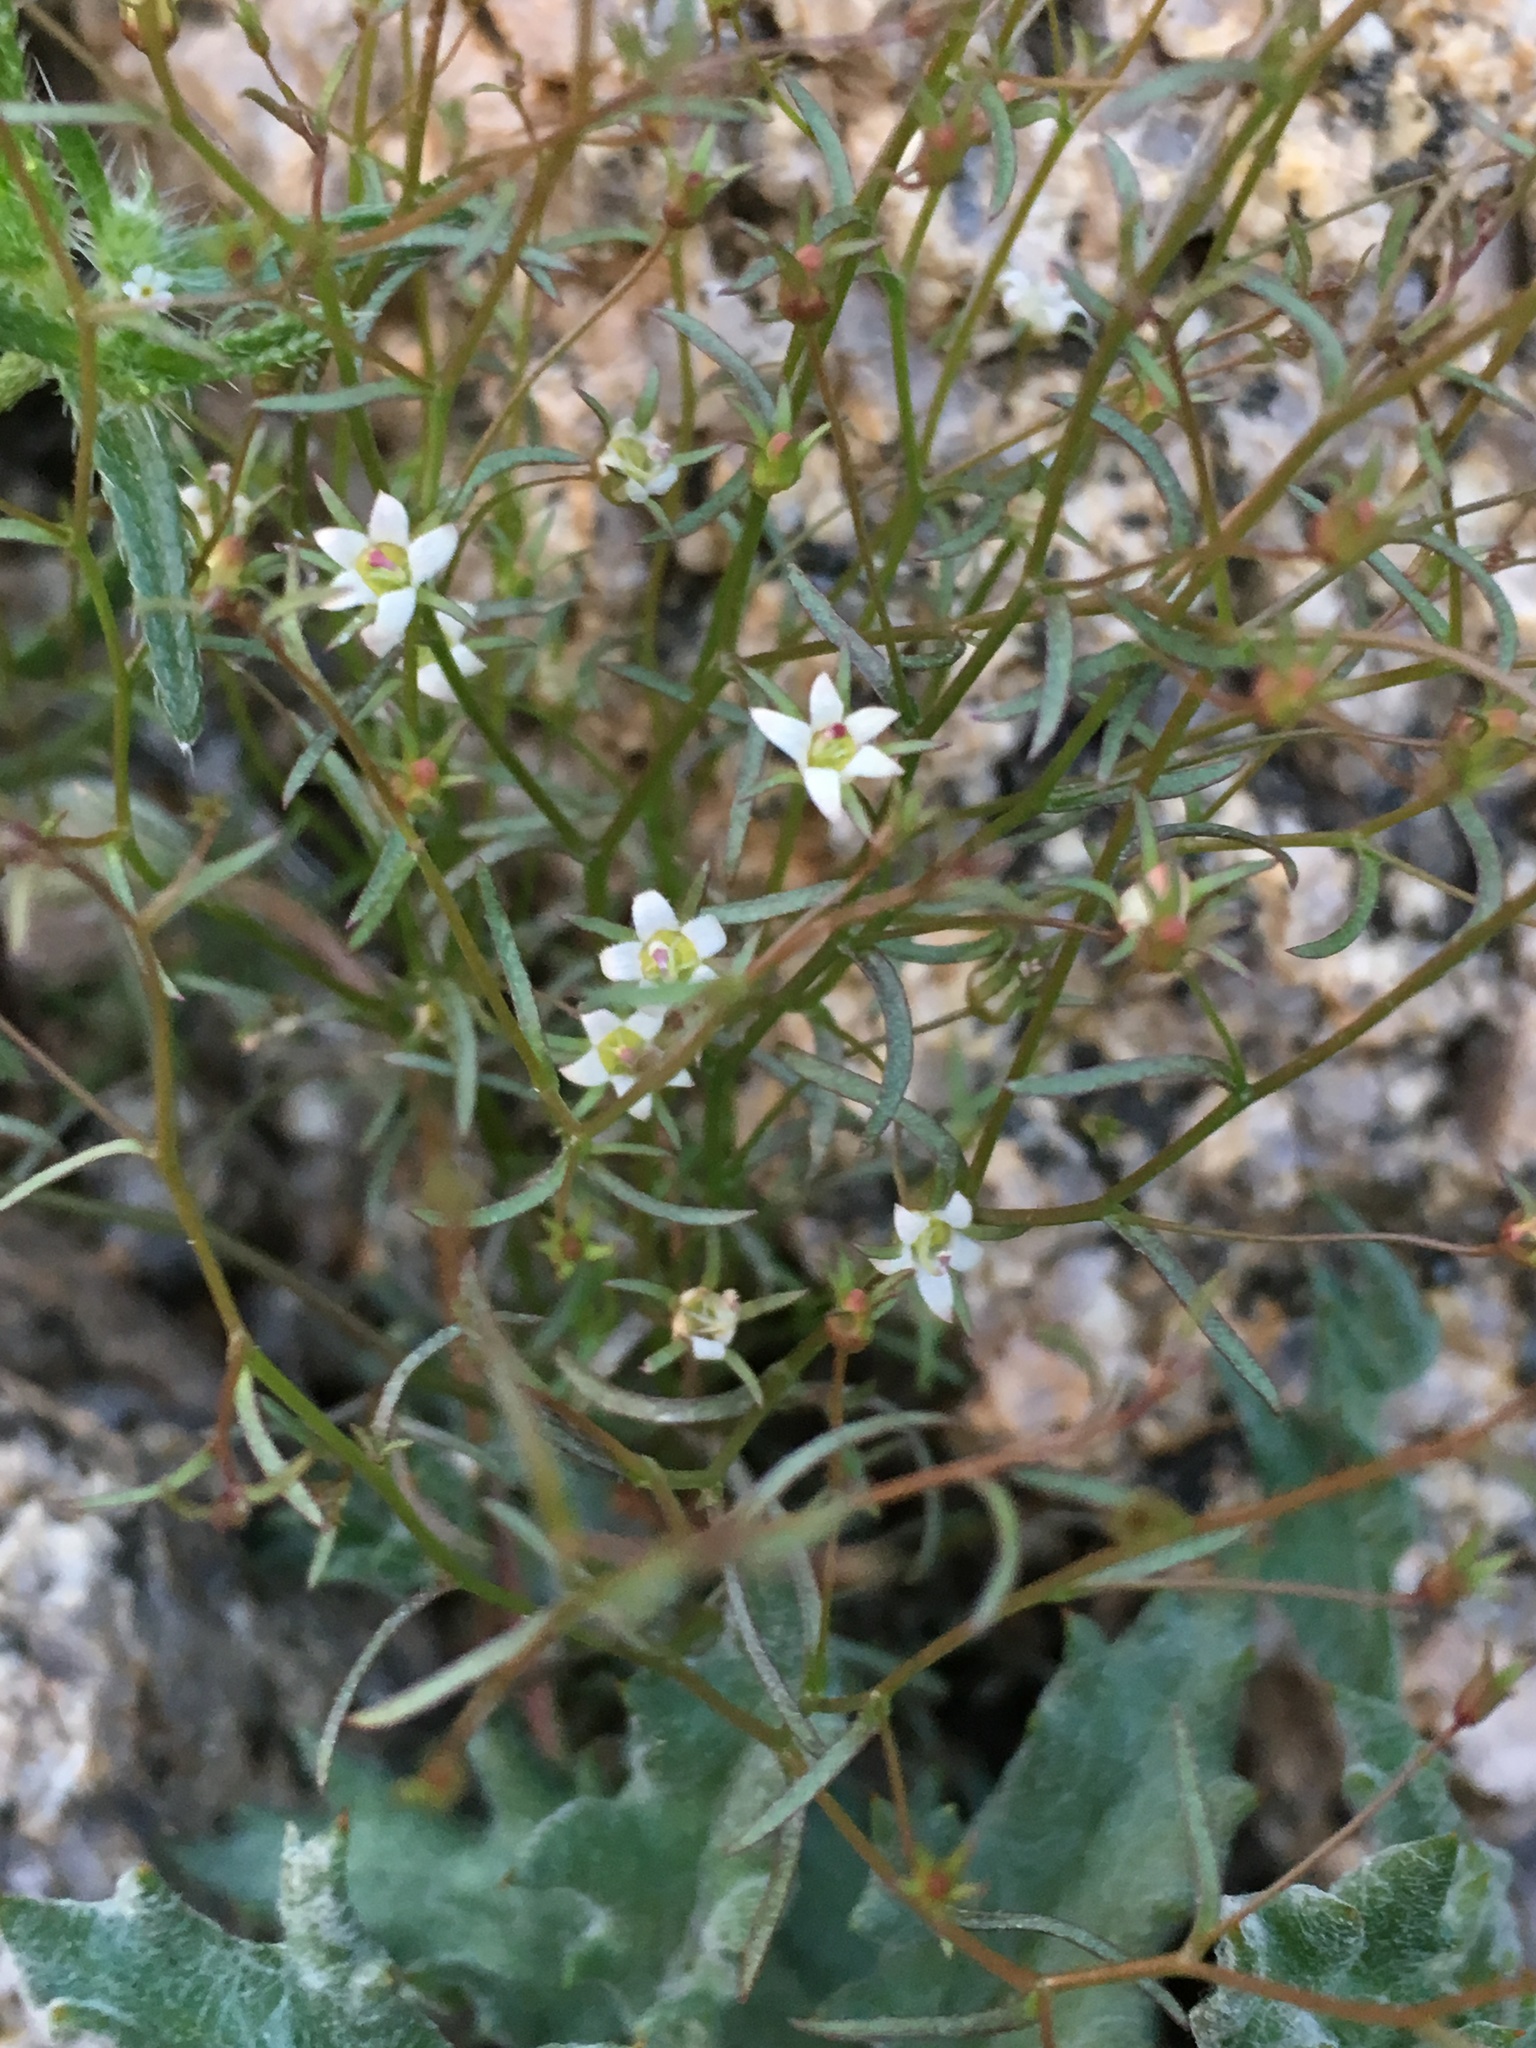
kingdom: Plantae
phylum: Tracheophyta
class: Magnoliopsida
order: Asterales
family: Campanulaceae
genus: Nemacladus
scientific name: Nemacladus glanduliferus
